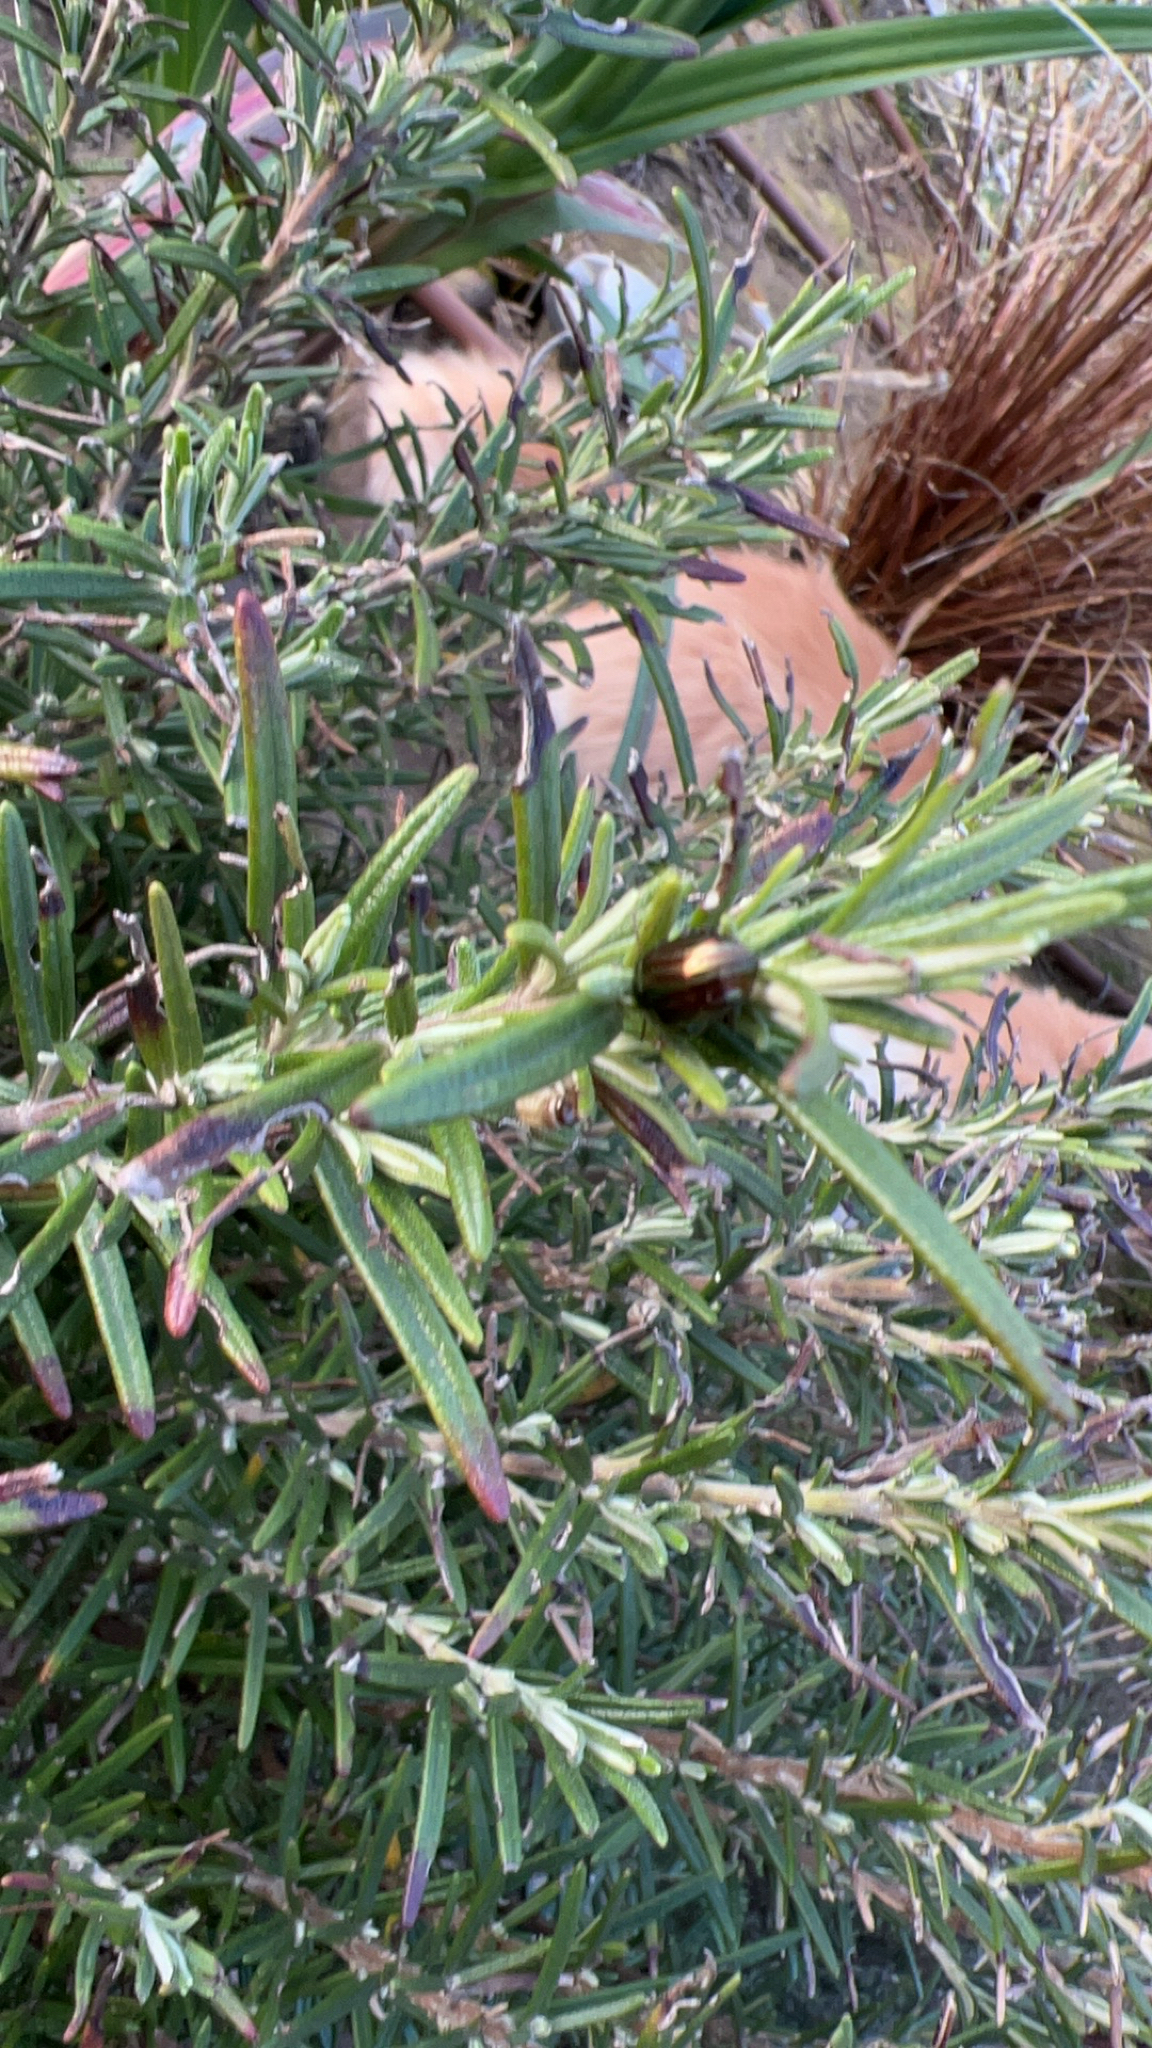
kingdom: Animalia
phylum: Arthropoda
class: Insecta
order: Coleoptera
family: Chrysomelidae
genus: Chrysolina
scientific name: Chrysolina americana
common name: Rosemary beetle
